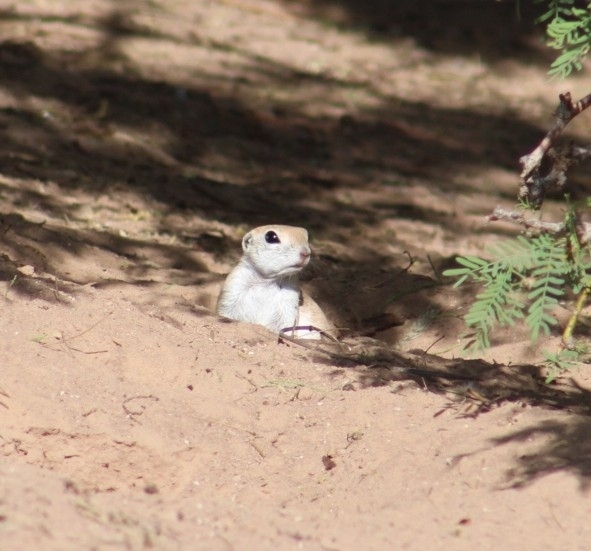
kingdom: Animalia
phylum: Chordata
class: Mammalia
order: Rodentia
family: Sciuridae
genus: Xerospermophilus
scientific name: Xerospermophilus tereticaudus
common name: Round-tailed ground squirrel
